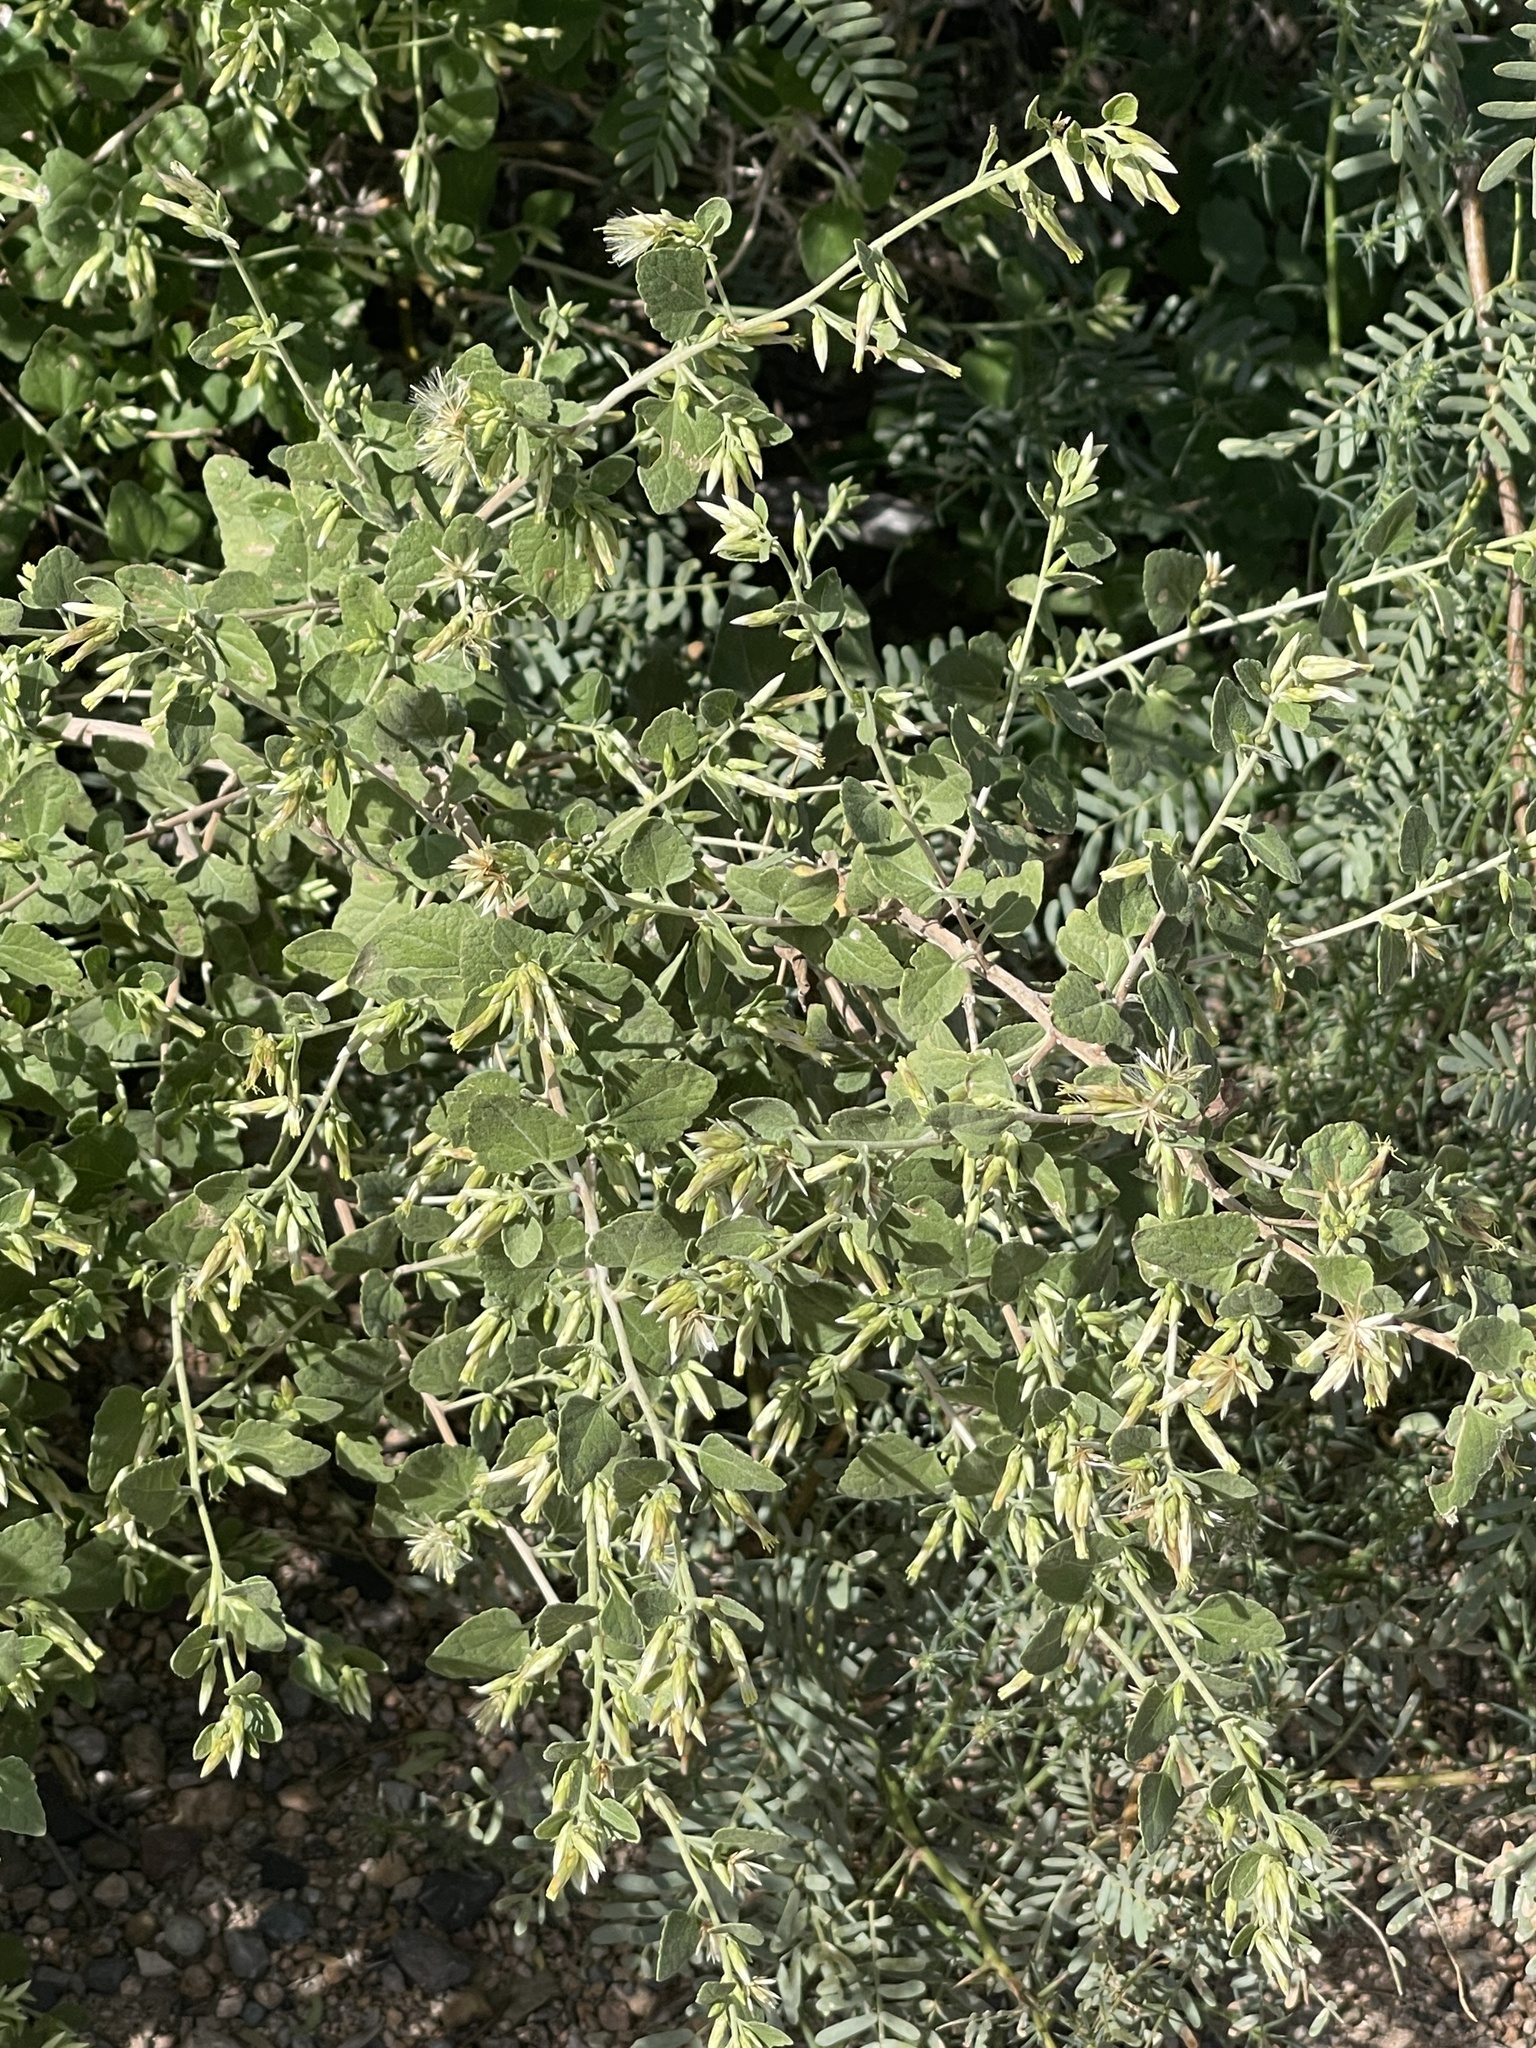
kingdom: Plantae
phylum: Tracheophyta
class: Magnoliopsida
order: Asterales
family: Asteraceae
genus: Brickellia
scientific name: Brickellia californica
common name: California brickellbush
